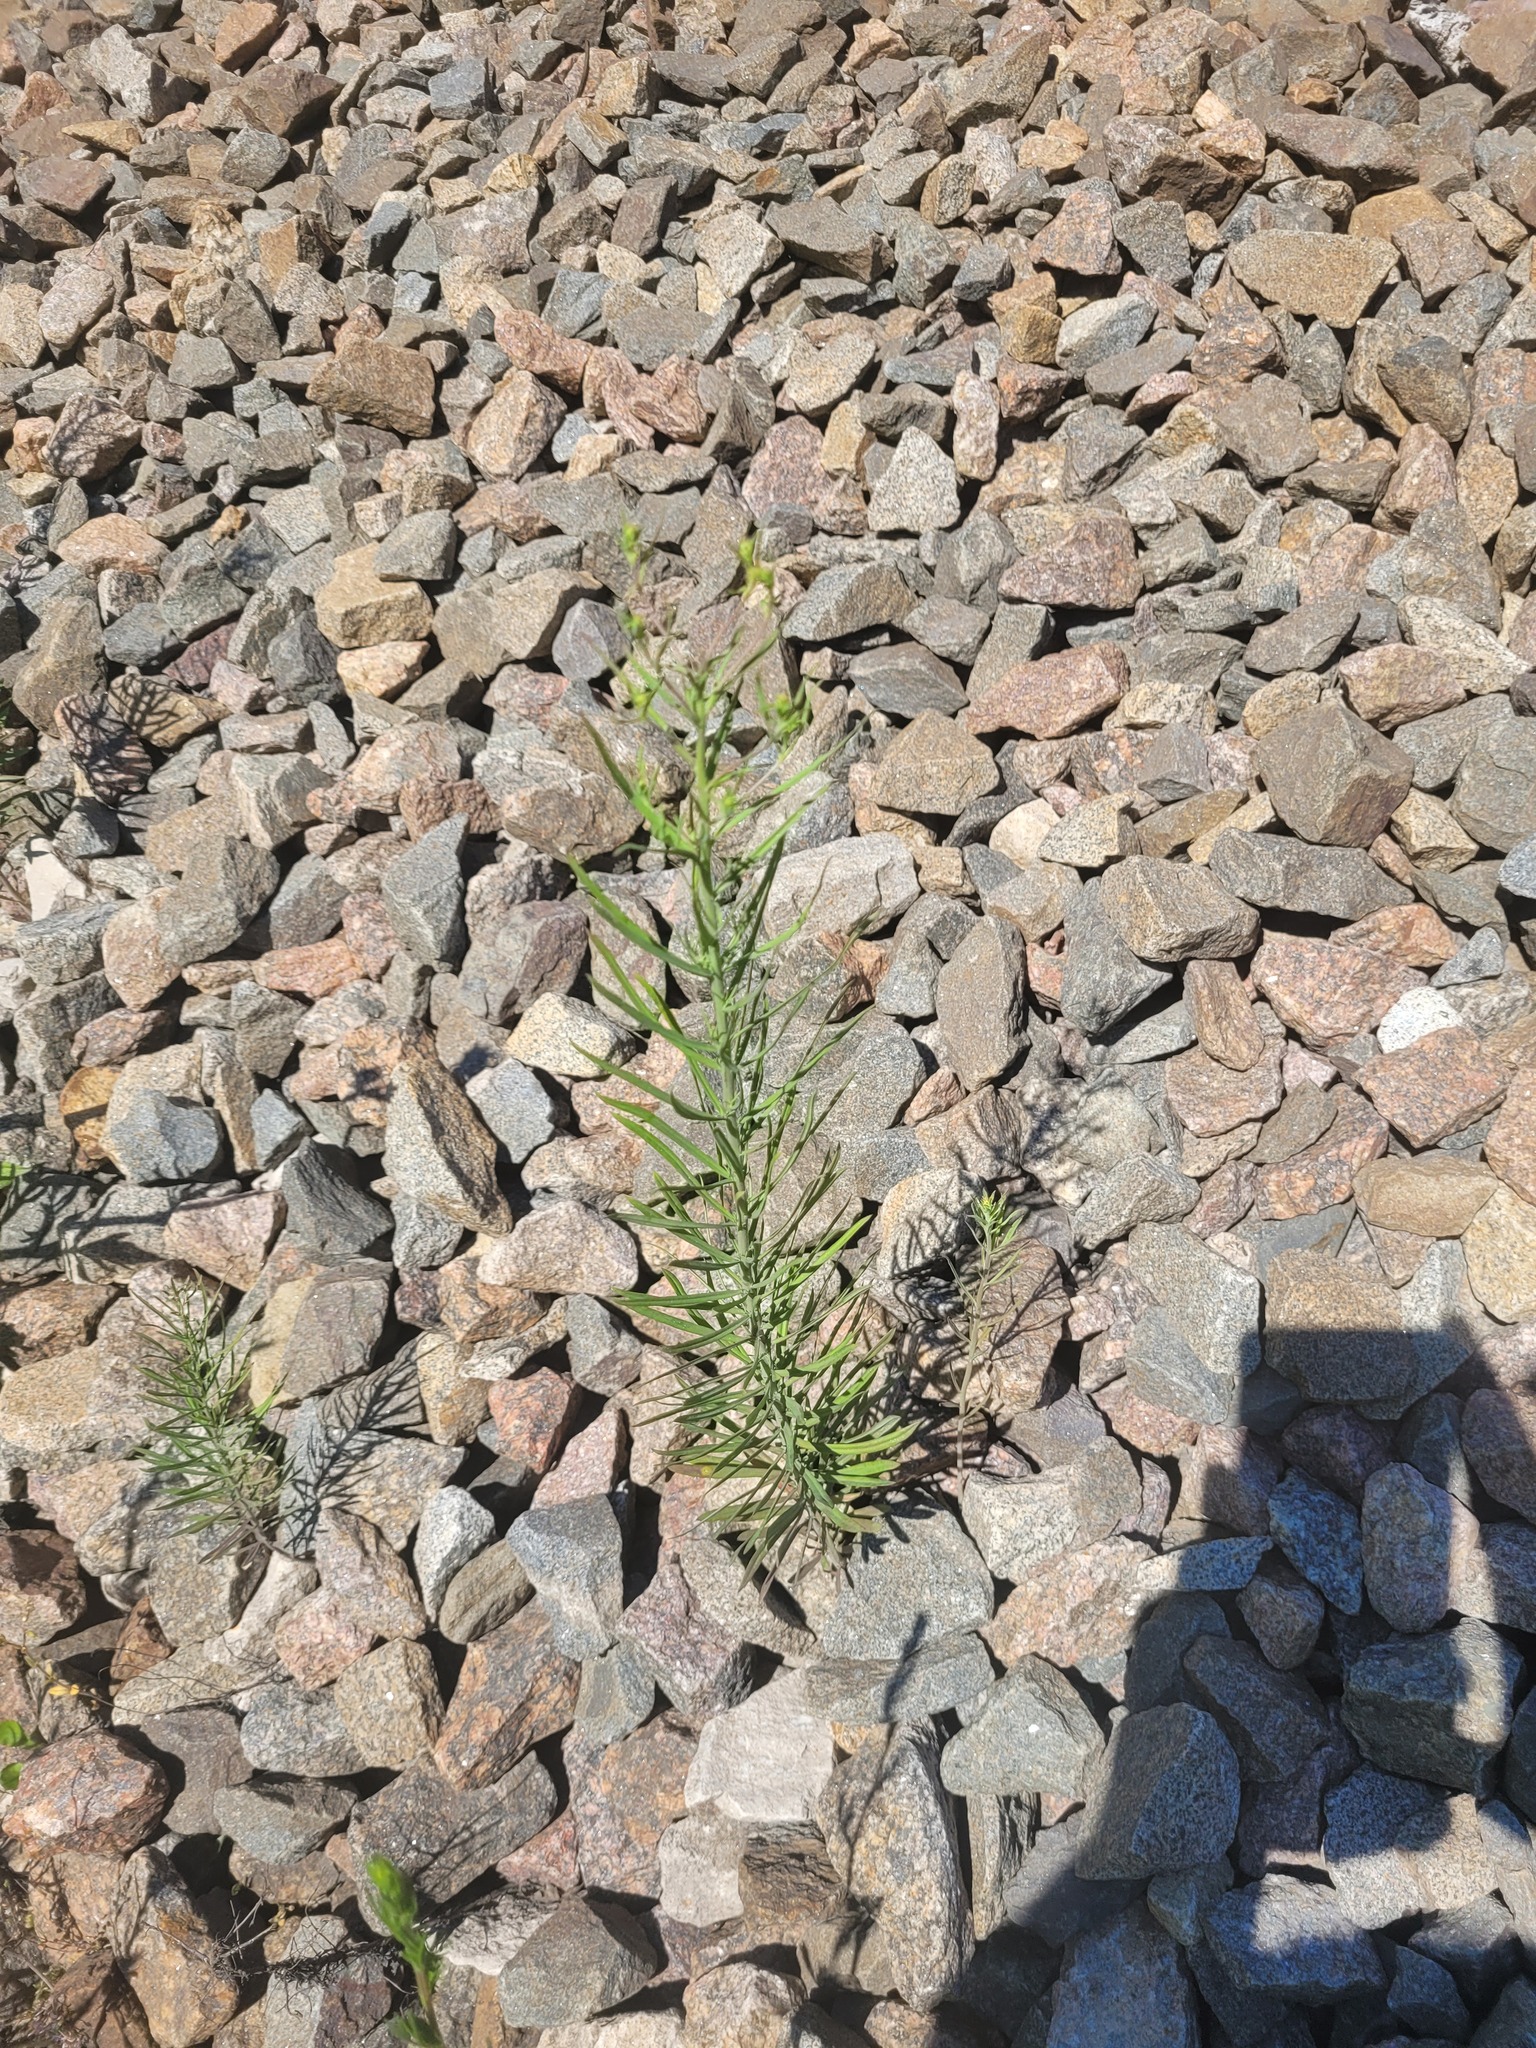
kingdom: Plantae
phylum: Tracheophyta
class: Magnoliopsida
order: Lamiales
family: Plantaginaceae
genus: Linaria
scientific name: Linaria vulgaris
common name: Butter and eggs
